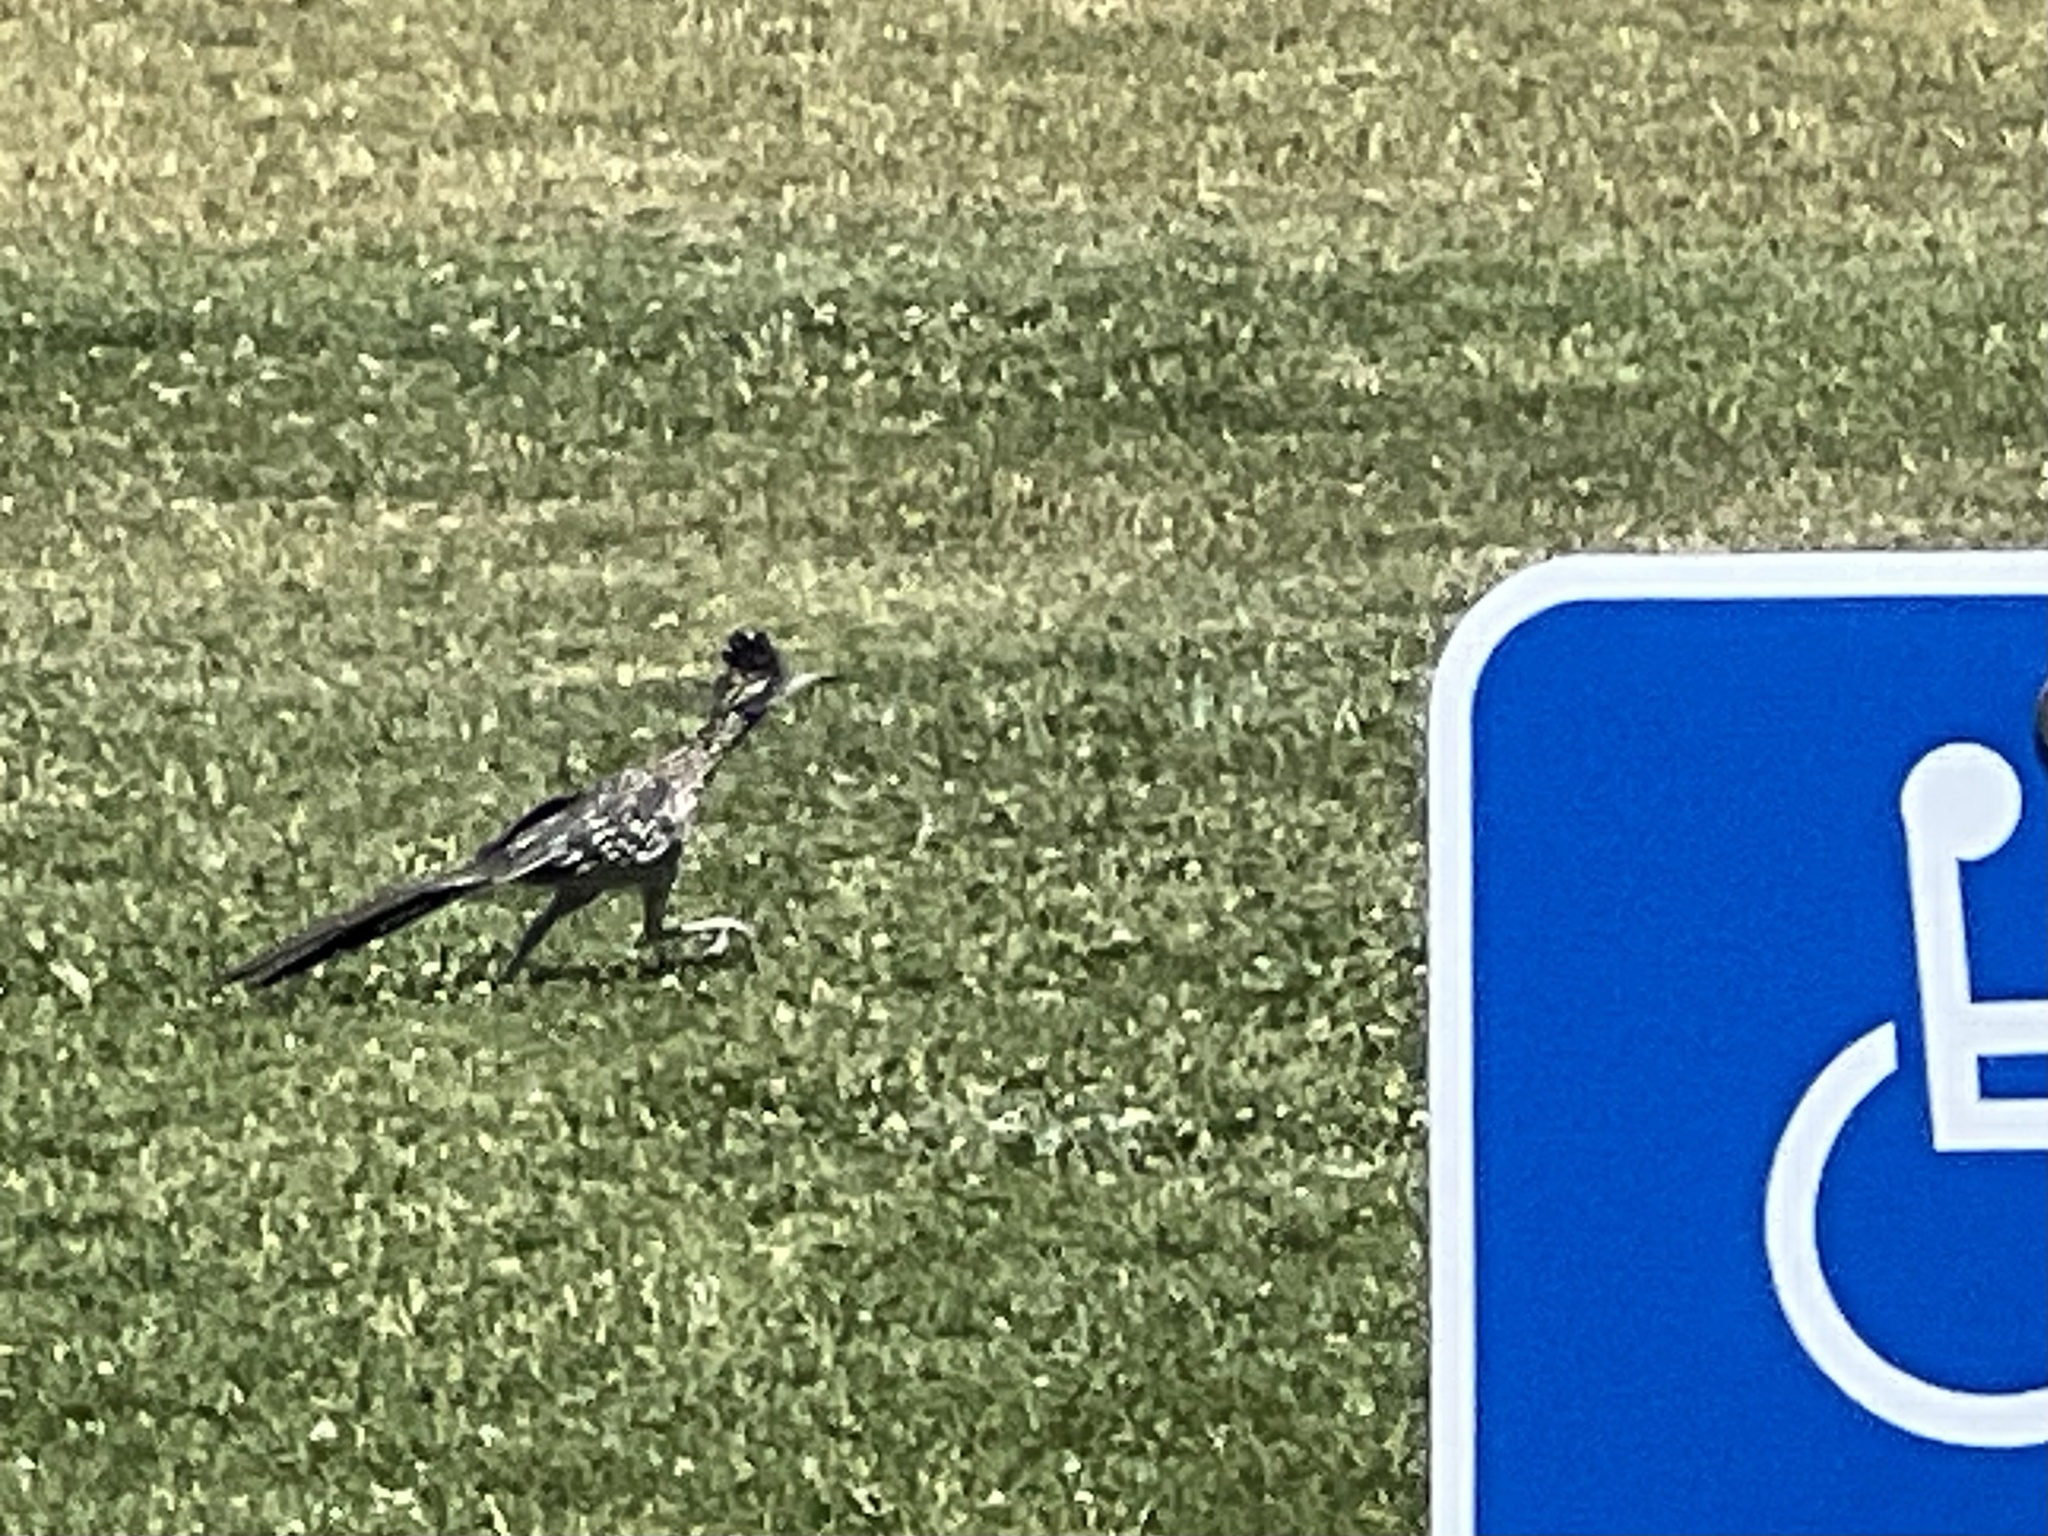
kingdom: Animalia
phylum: Chordata
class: Aves
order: Cuculiformes
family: Cuculidae
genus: Geococcyx
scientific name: Geococcyx californianus
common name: Greater roadrunner
